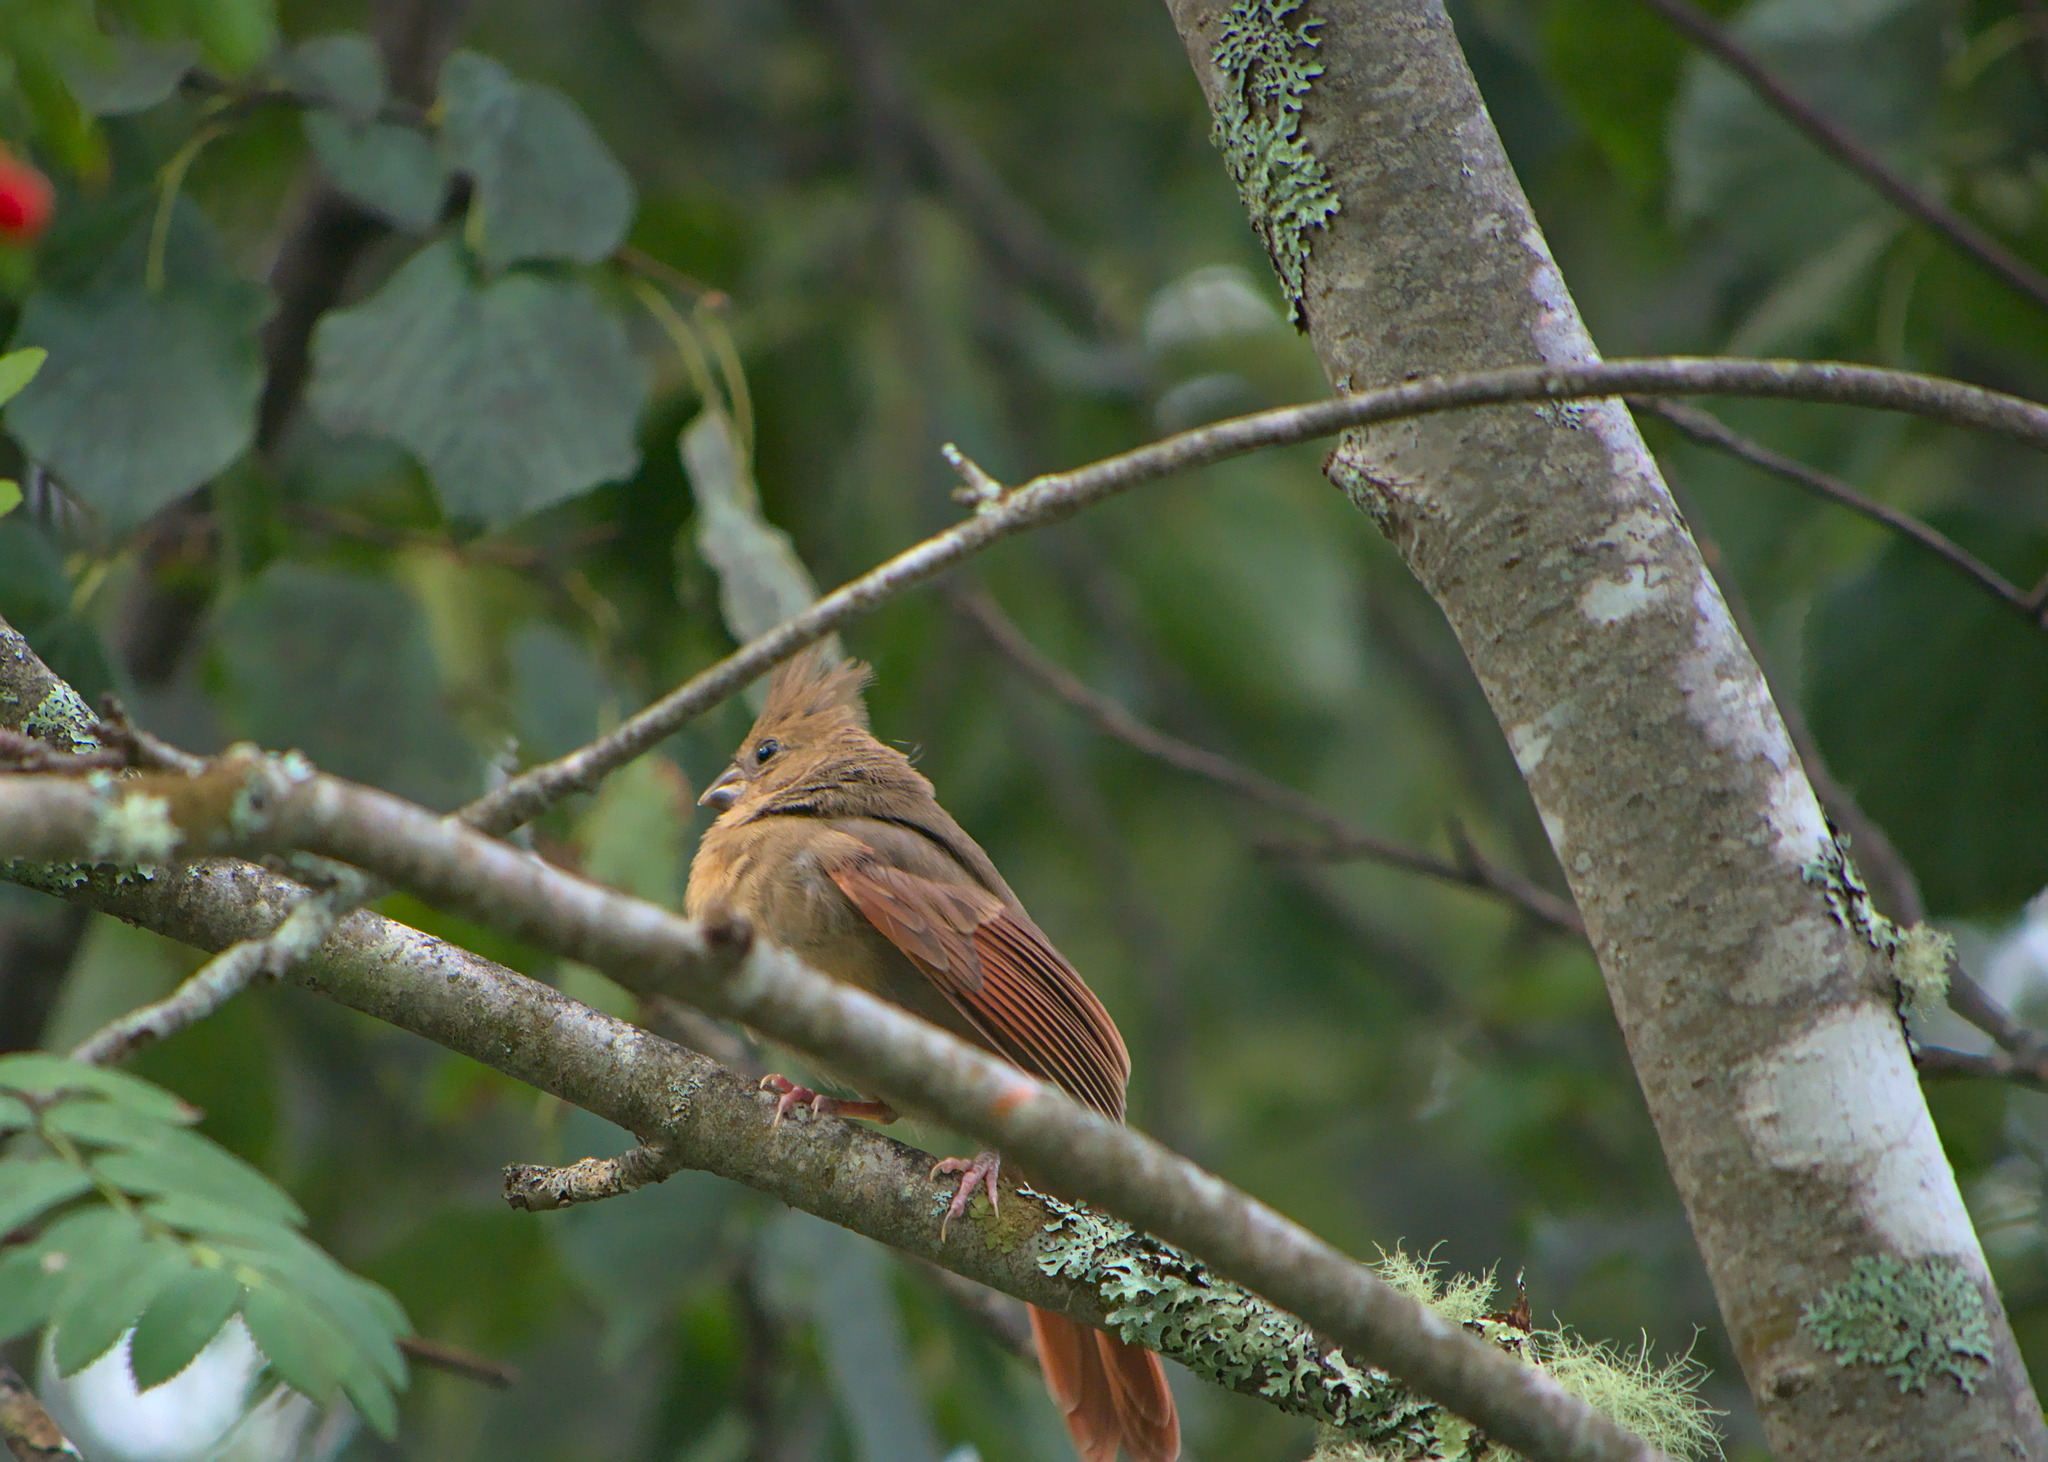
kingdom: Animalia
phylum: Chordata
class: Aves
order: Passeriformes
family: Cardinalidae
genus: Cardinalis
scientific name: Cardinalis cardinalis
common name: Northern cardinal
